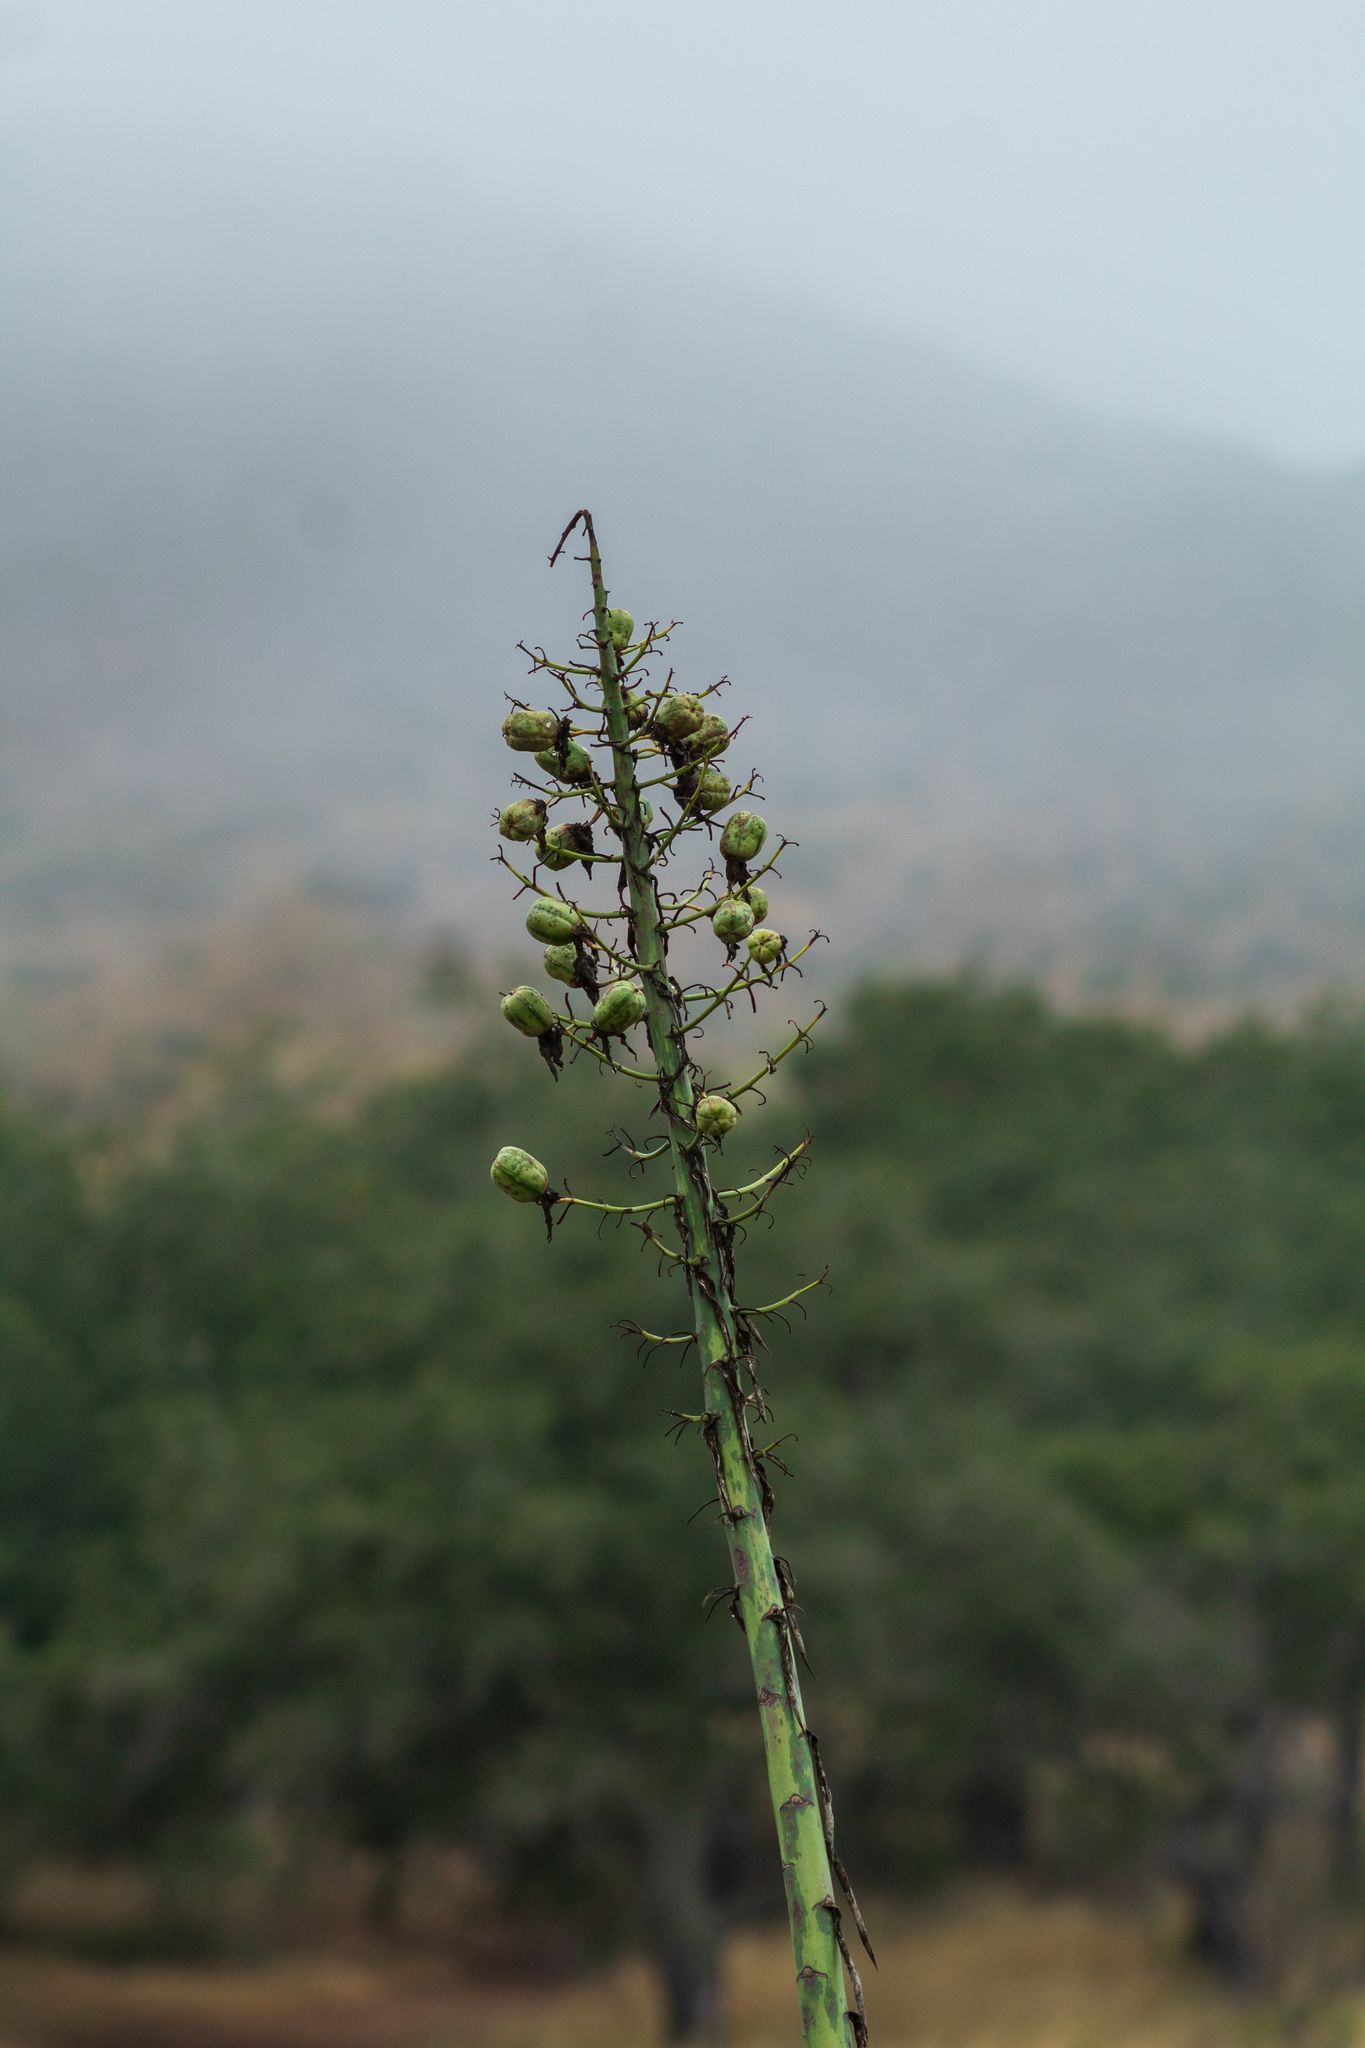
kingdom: Plantae
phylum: Tracheophyta
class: Liliopsida
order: Asparagales
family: Asparagaceae
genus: Hesperoyucca
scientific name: Hesperoyucca whipplei
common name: Our lord's-candle
